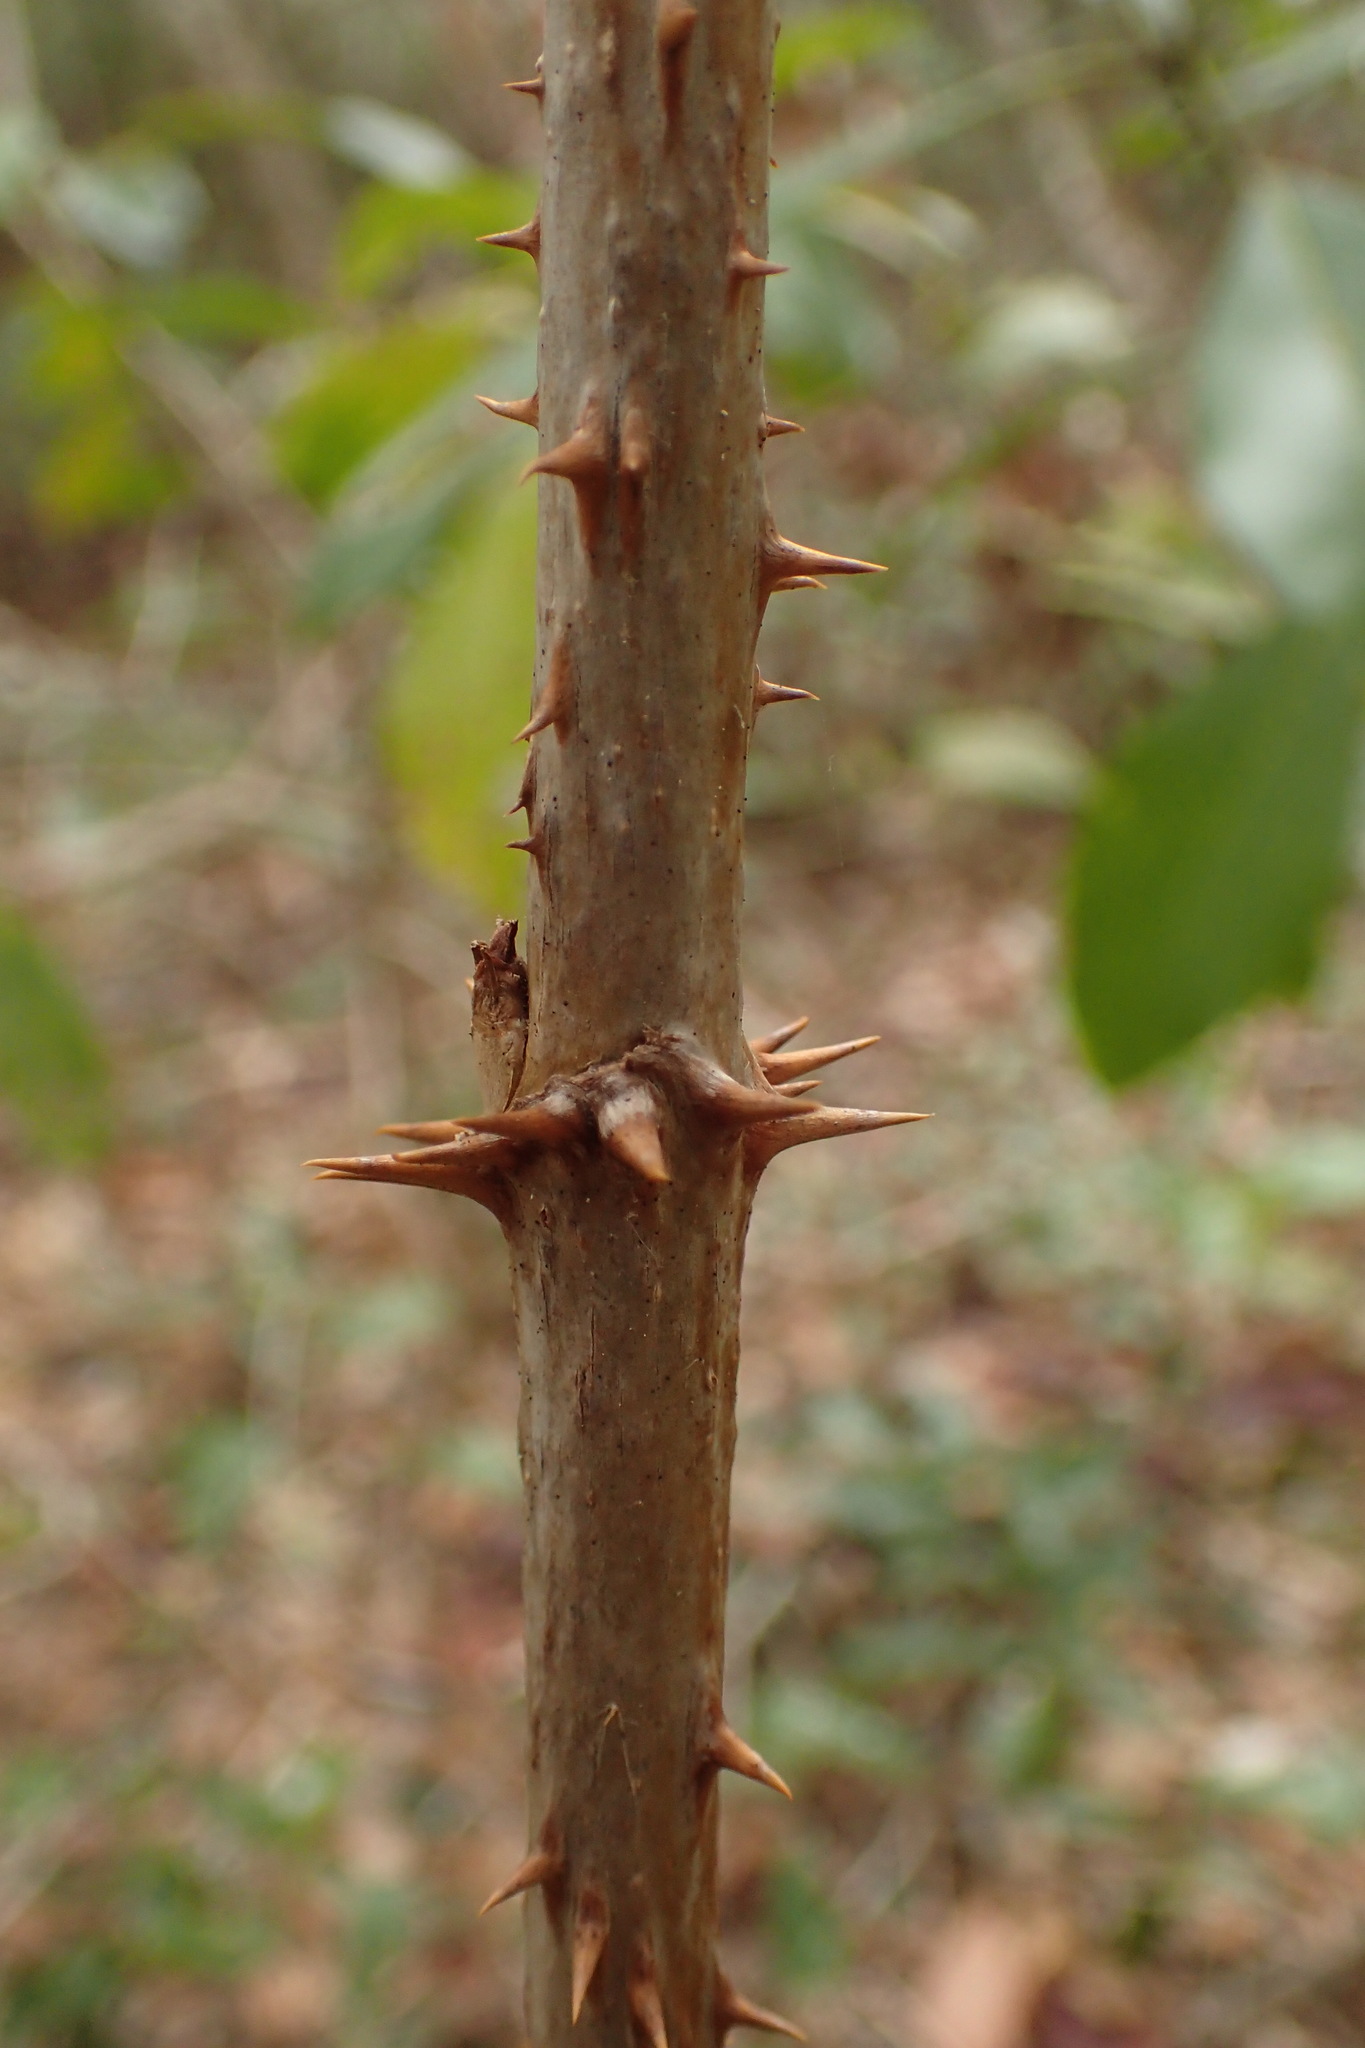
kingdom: Plantae
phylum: Tracheophyta
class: Magnoliopsida
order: Apiales
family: Araliaceae
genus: Aralia
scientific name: Aralia spinosa
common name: Hercules'-club
